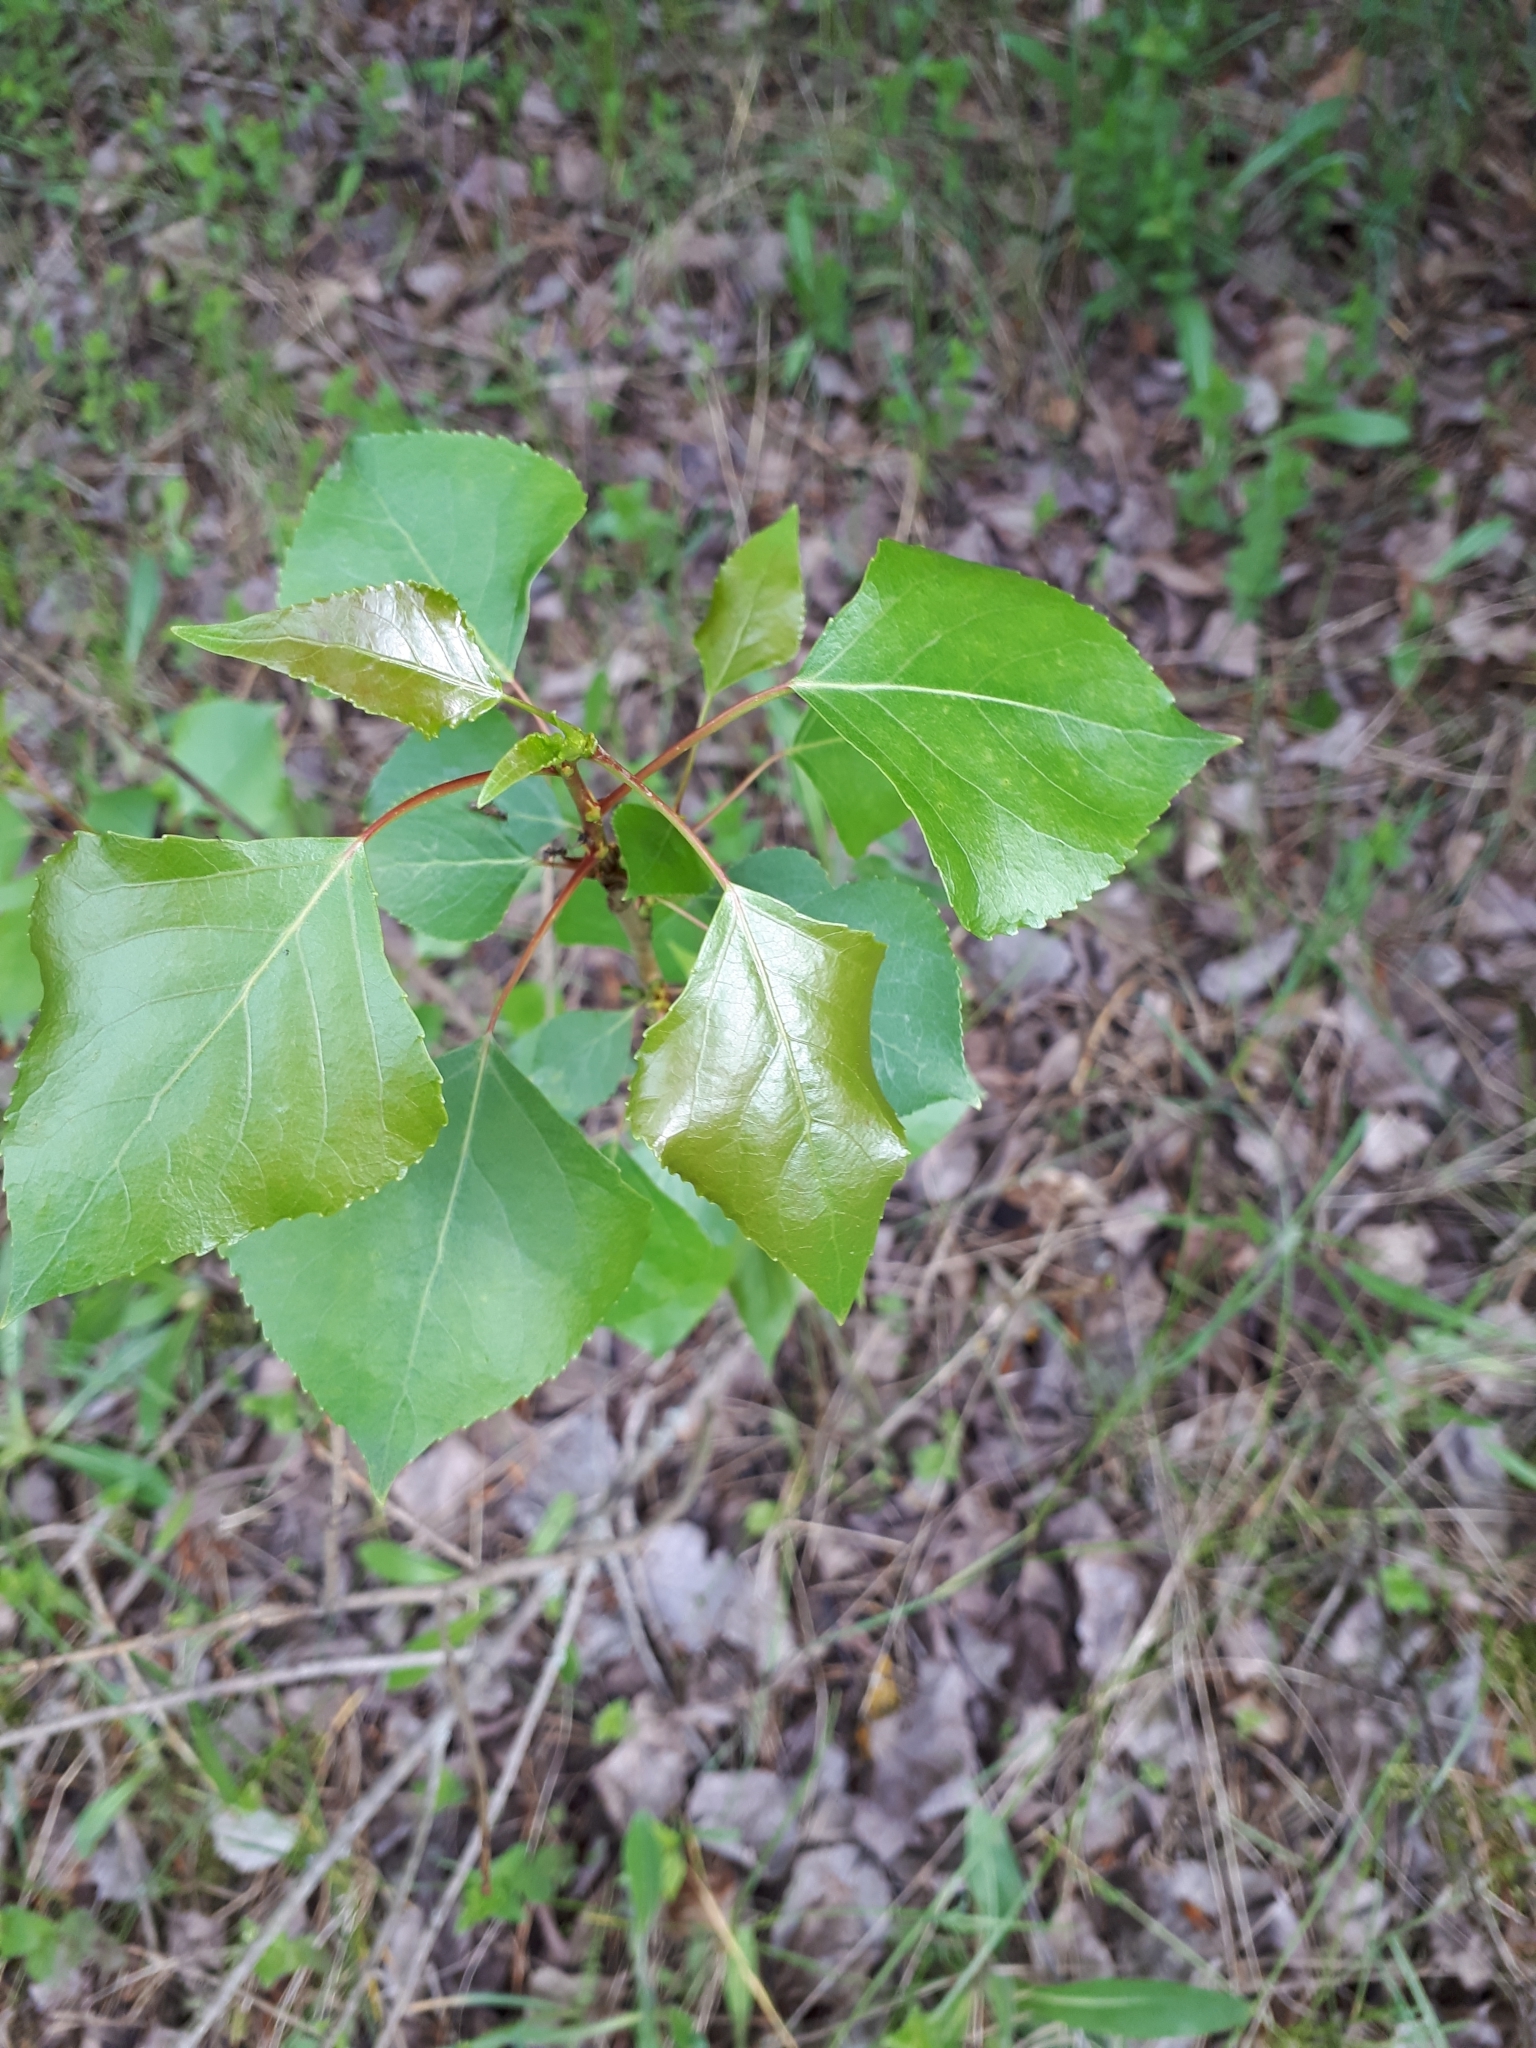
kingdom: Plantae
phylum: Tracheophyta
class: Magnoliopsida
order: Malpighiales
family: Salicaceae
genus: Populus
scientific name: Populus nigra
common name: Black poplar
